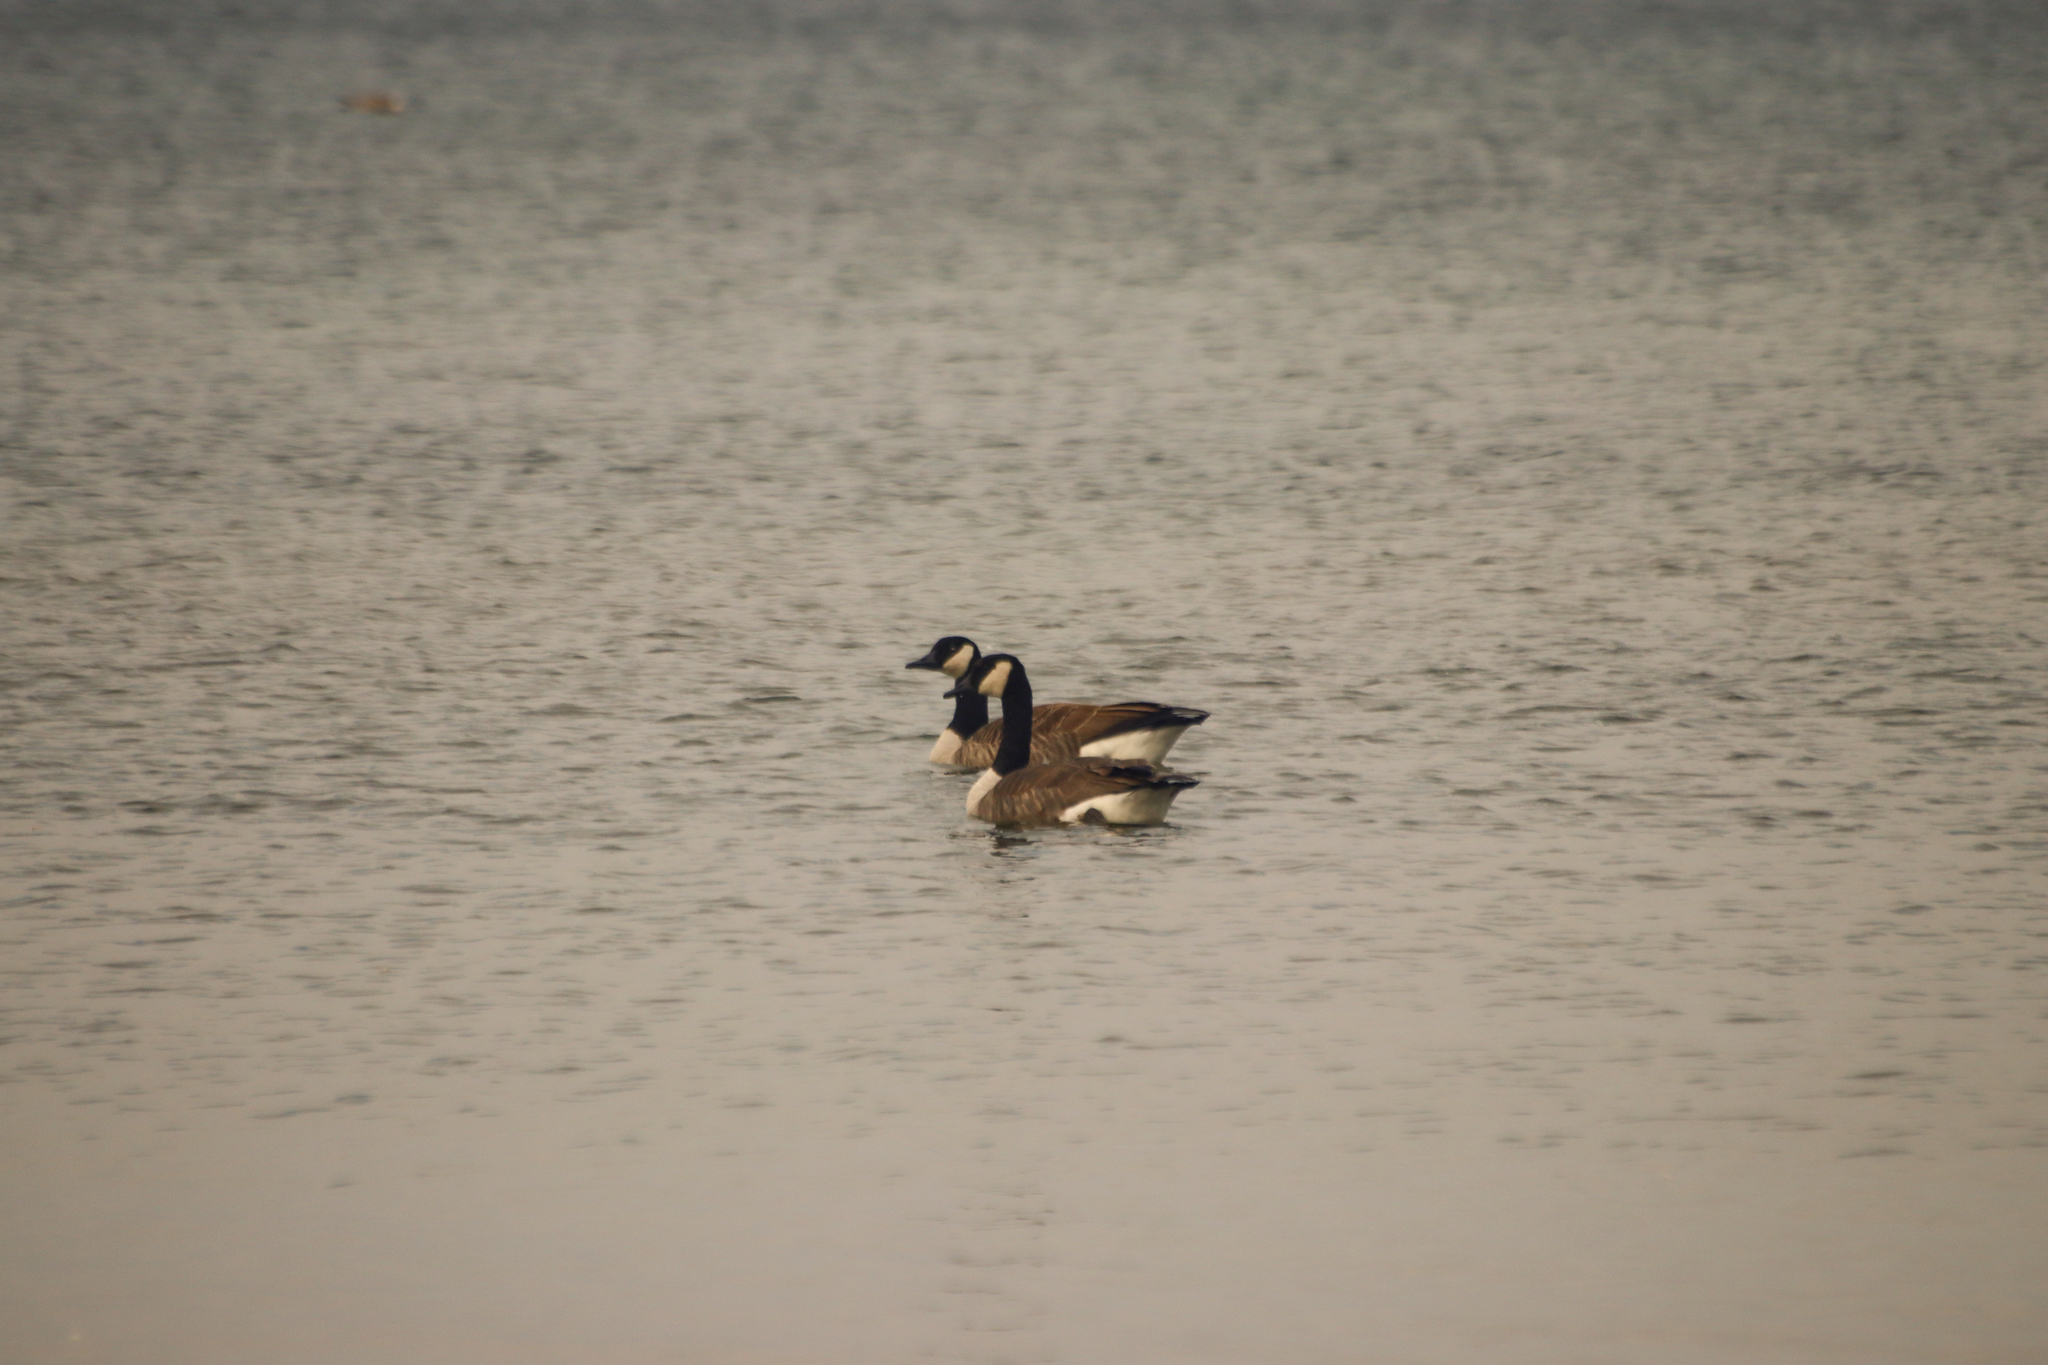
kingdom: Animalia
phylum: Chordata
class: Aves
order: Anseriformes
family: Anatidae
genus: Branta
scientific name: Branta canadensis
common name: Canada goose
